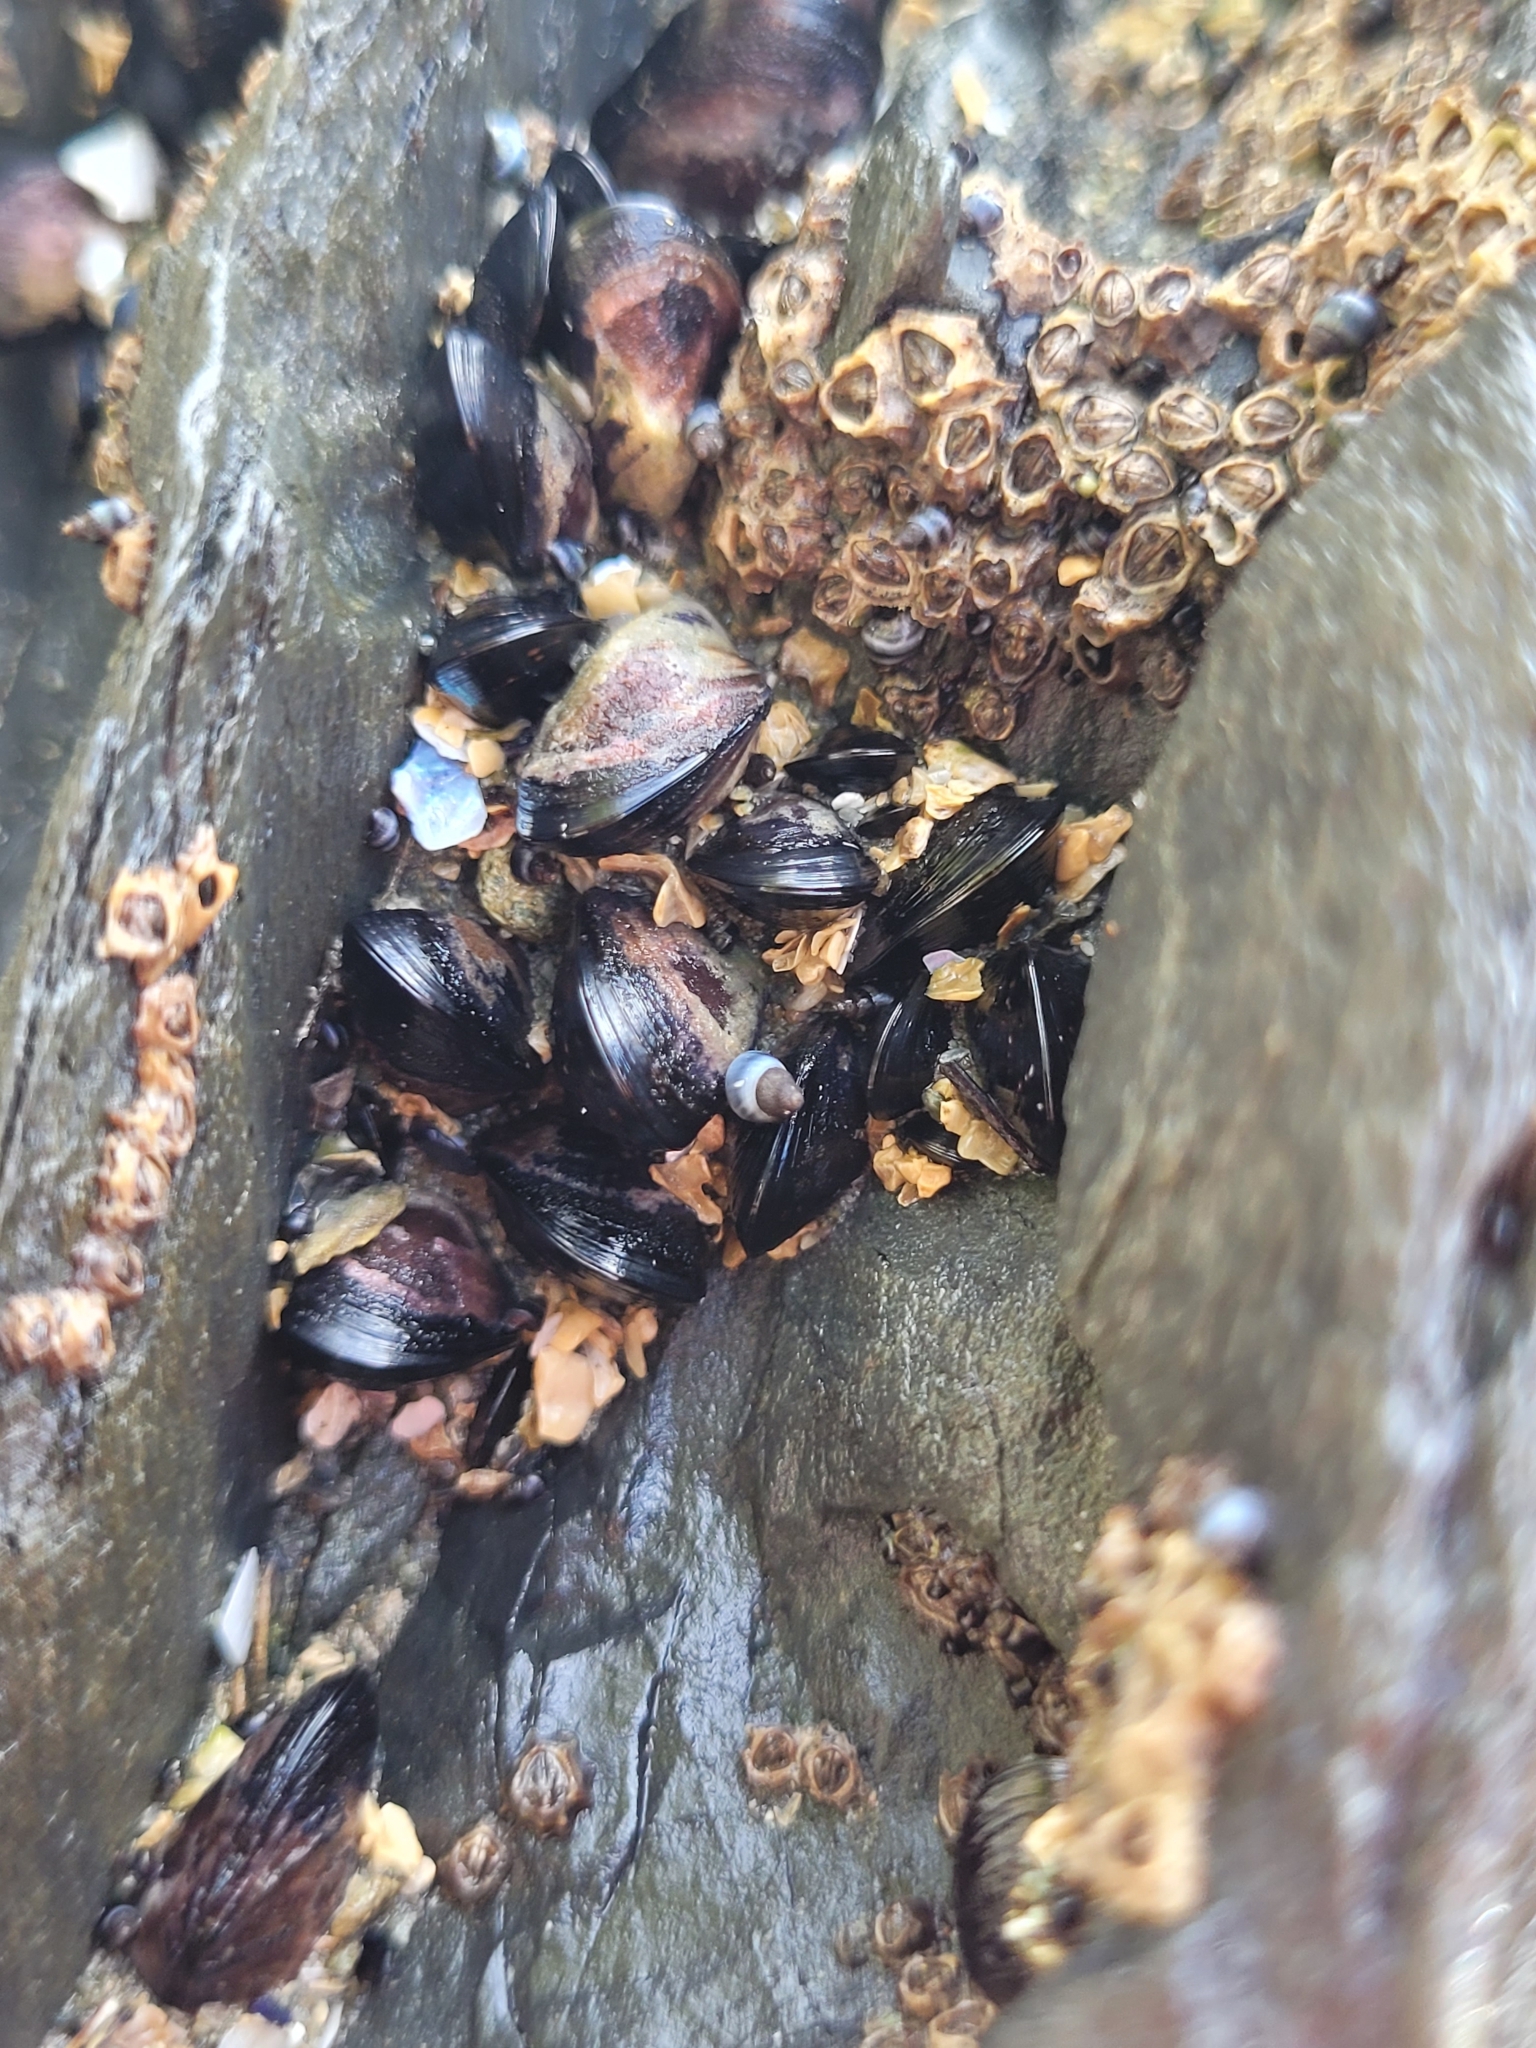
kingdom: Animalia
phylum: Mollusca
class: Bivalvia
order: Mytilida
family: Mytilidae
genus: Xenostrobus
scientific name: Xenostrobus neozelanicus
